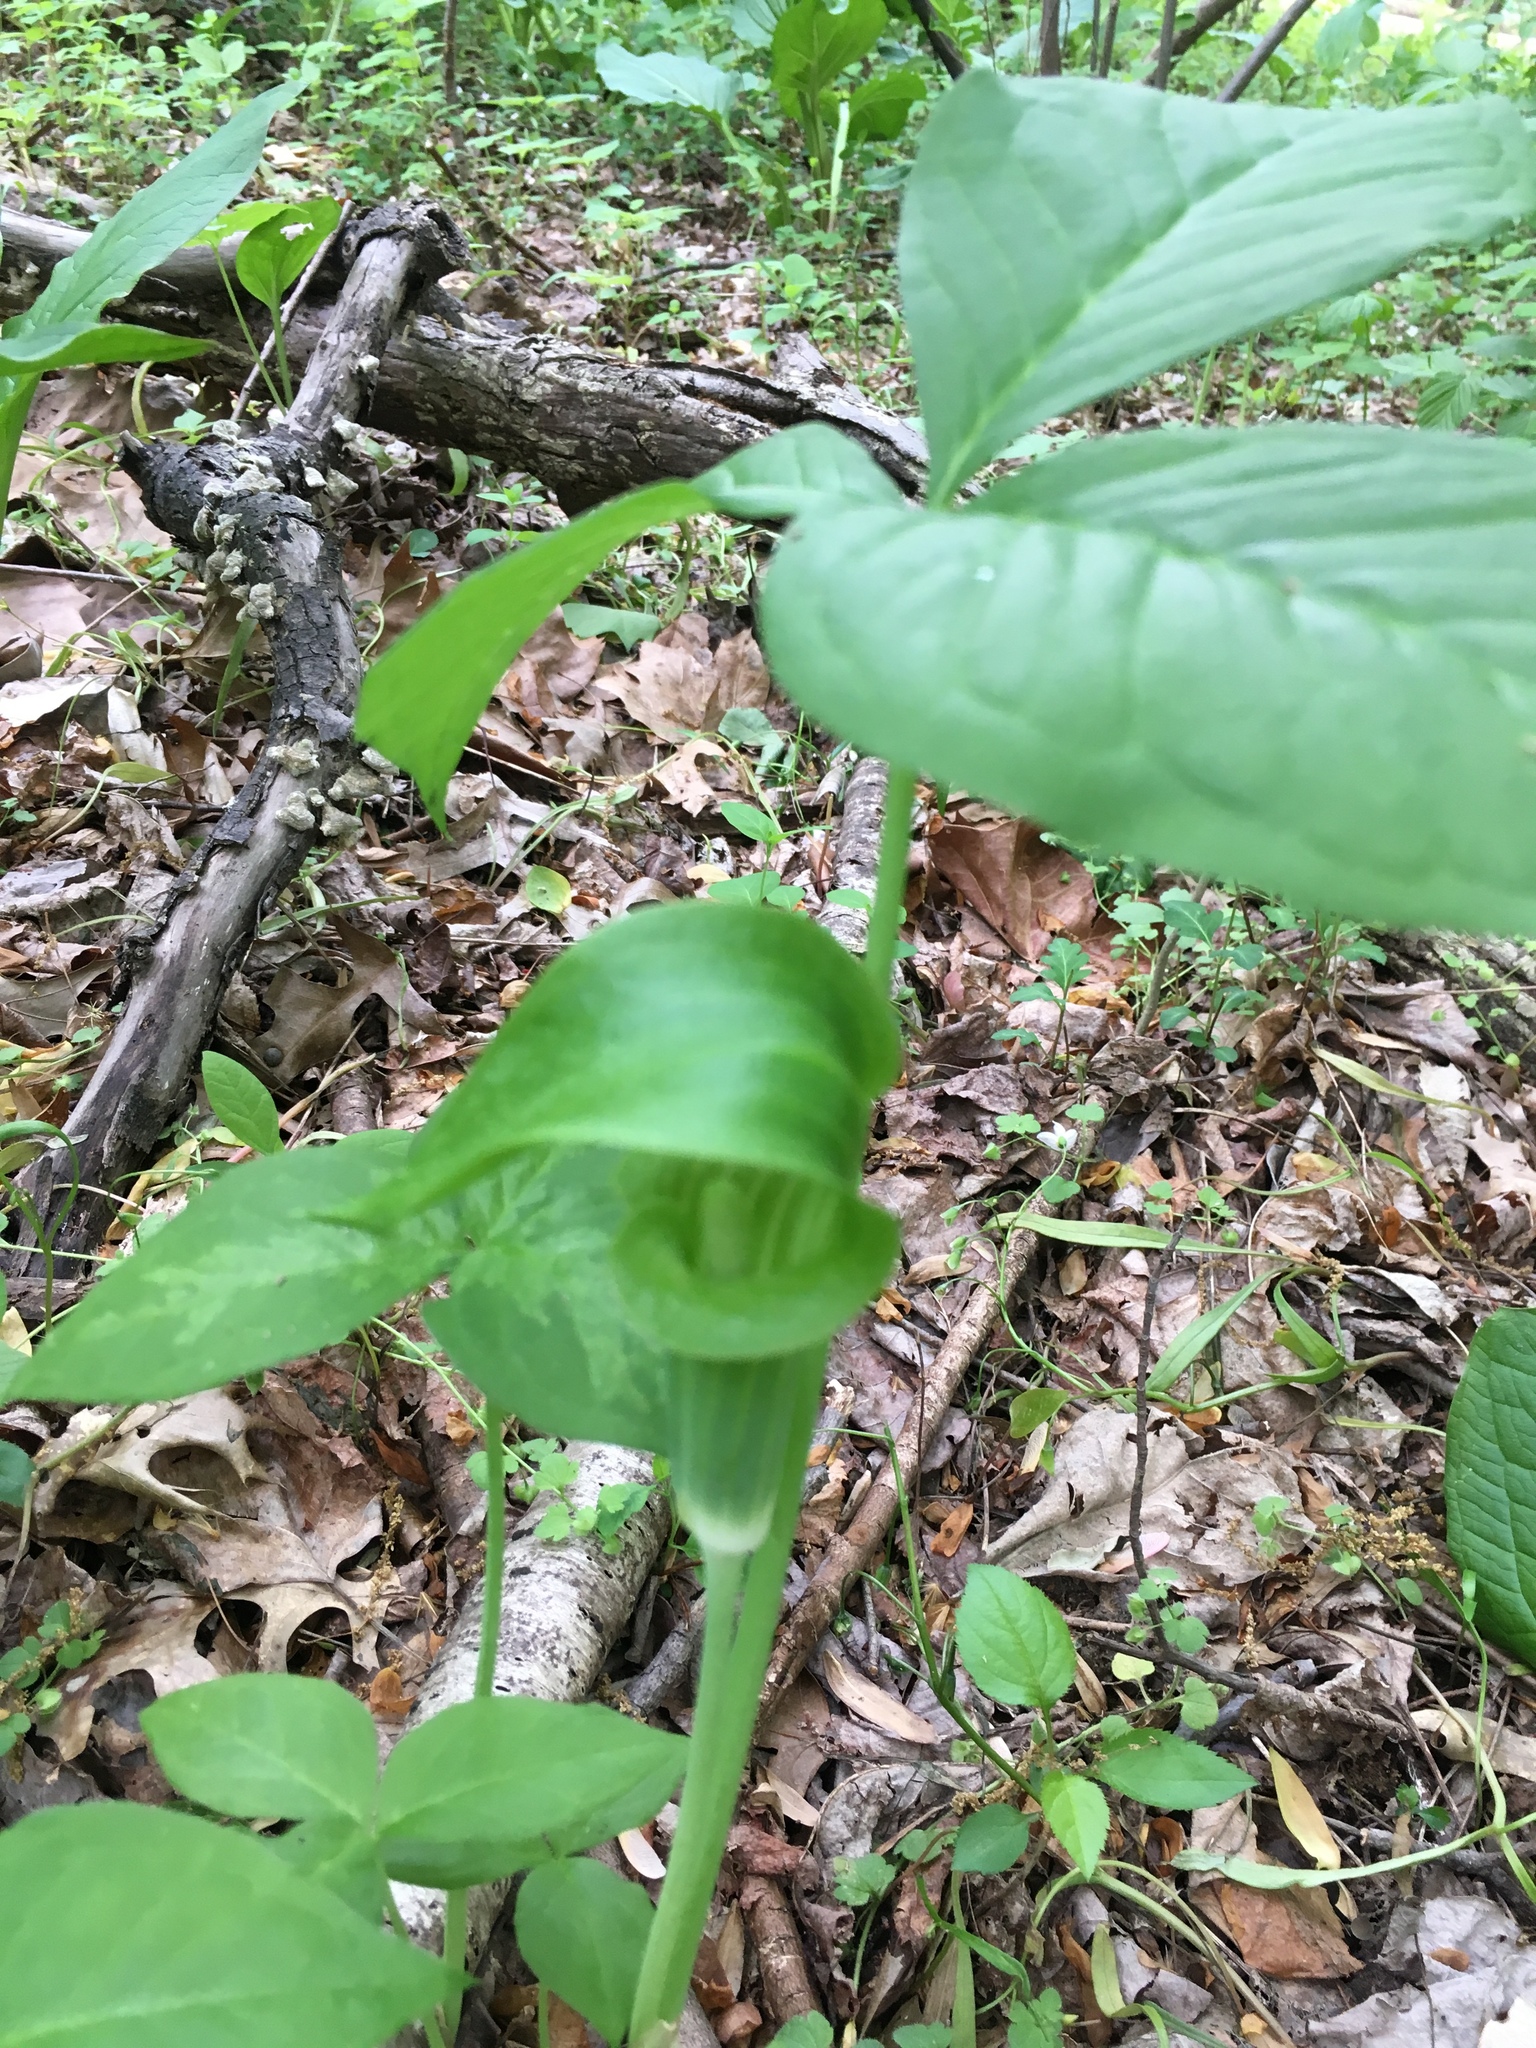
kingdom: Plantae
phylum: Tracheophyta
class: Liliopsida
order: Alismatales
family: Araceae
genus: Arisaema
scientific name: Arisaema triphyllum
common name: Jack-in-the-pulpit
